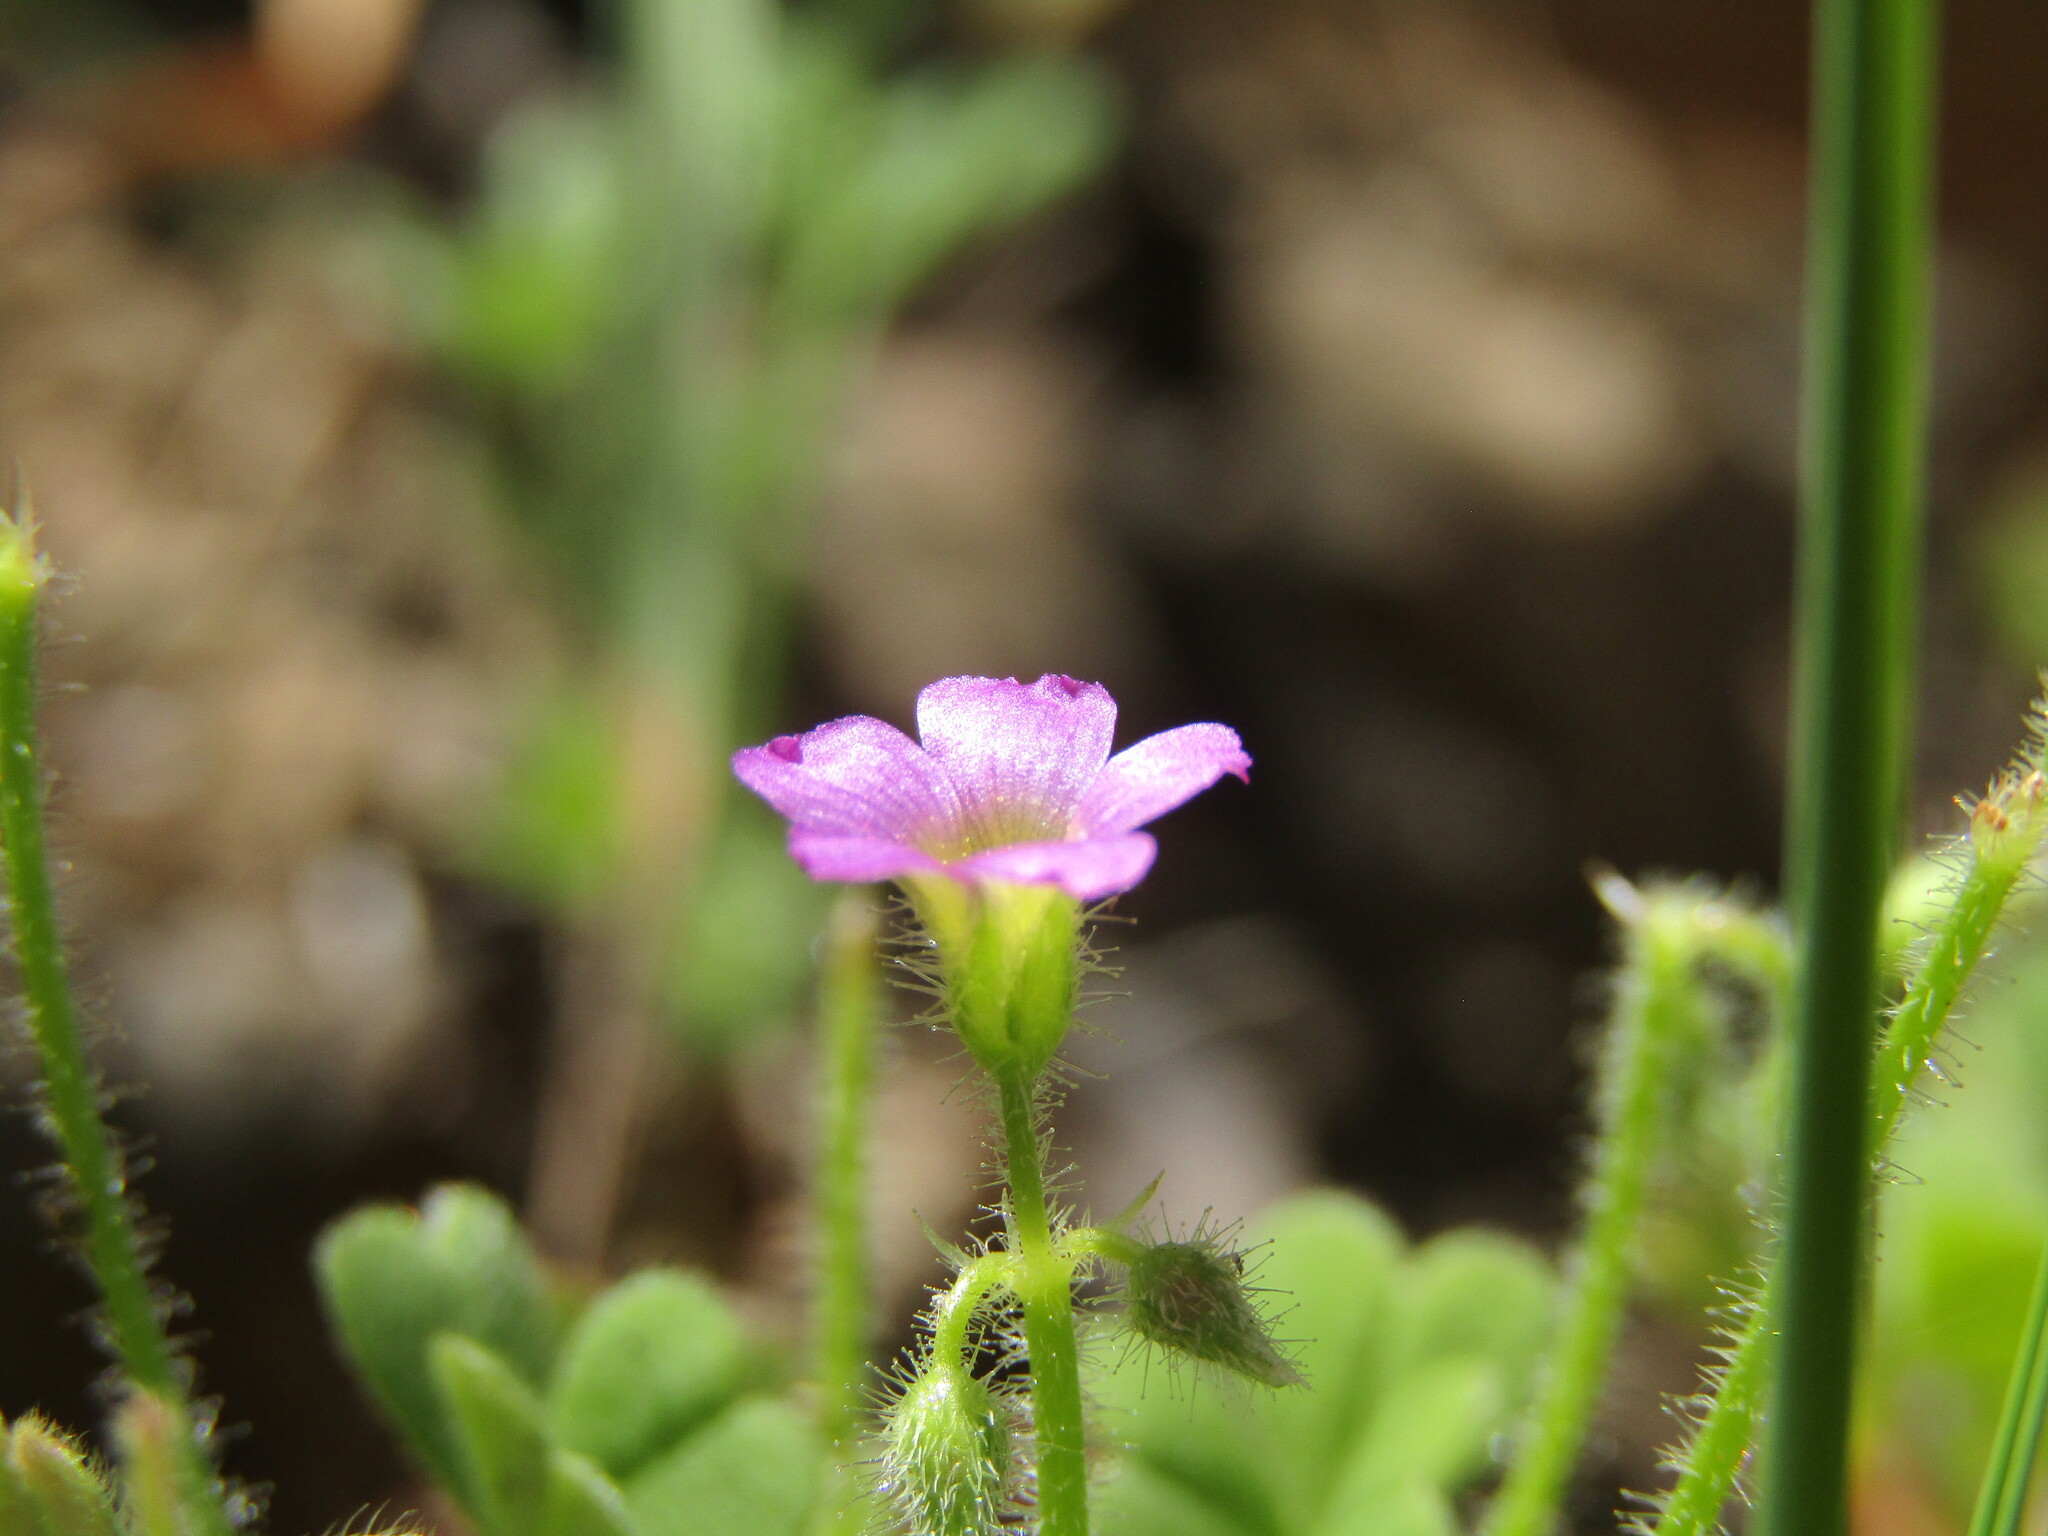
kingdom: Plantae
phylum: Tracheophyta
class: Magnoliopsida
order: Oxalidales
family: Oxalidaceae
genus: Oxalis
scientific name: Oxalis clandestina
